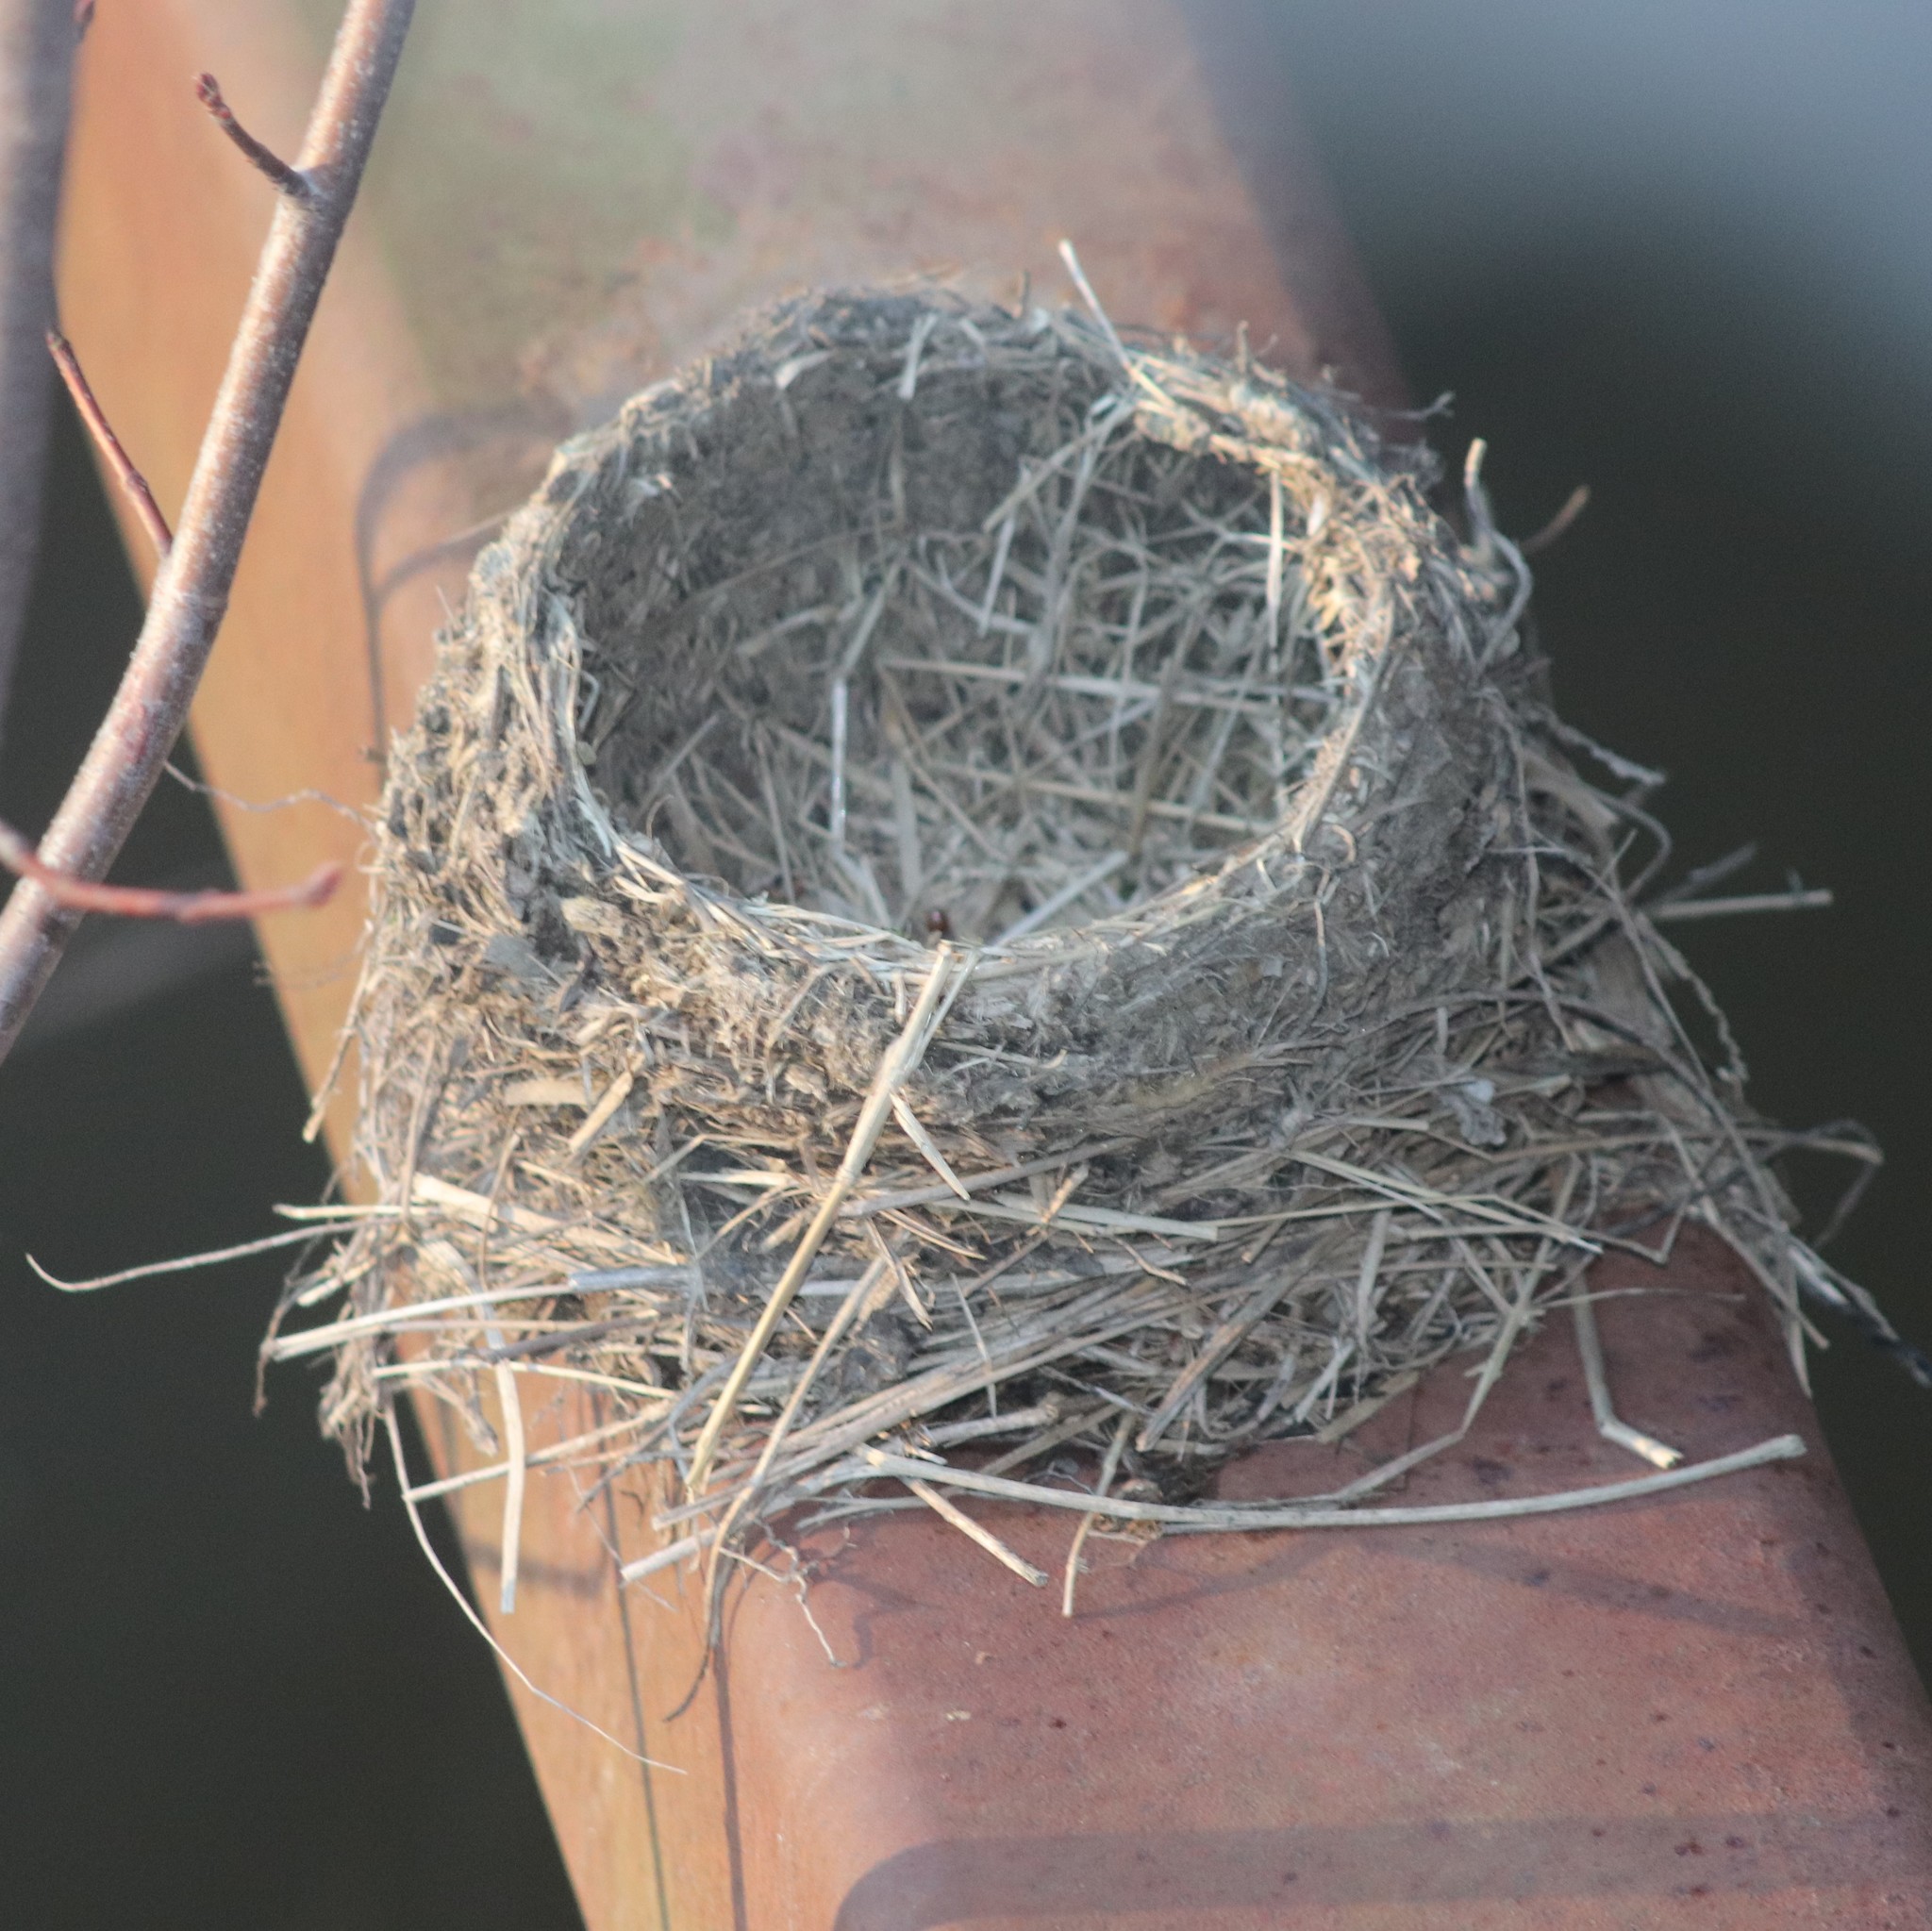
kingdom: Animalia
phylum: Chordata
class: Aves
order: Passeriformes
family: Turdidae
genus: Turdus
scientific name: Turdus migratorius
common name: American robin
